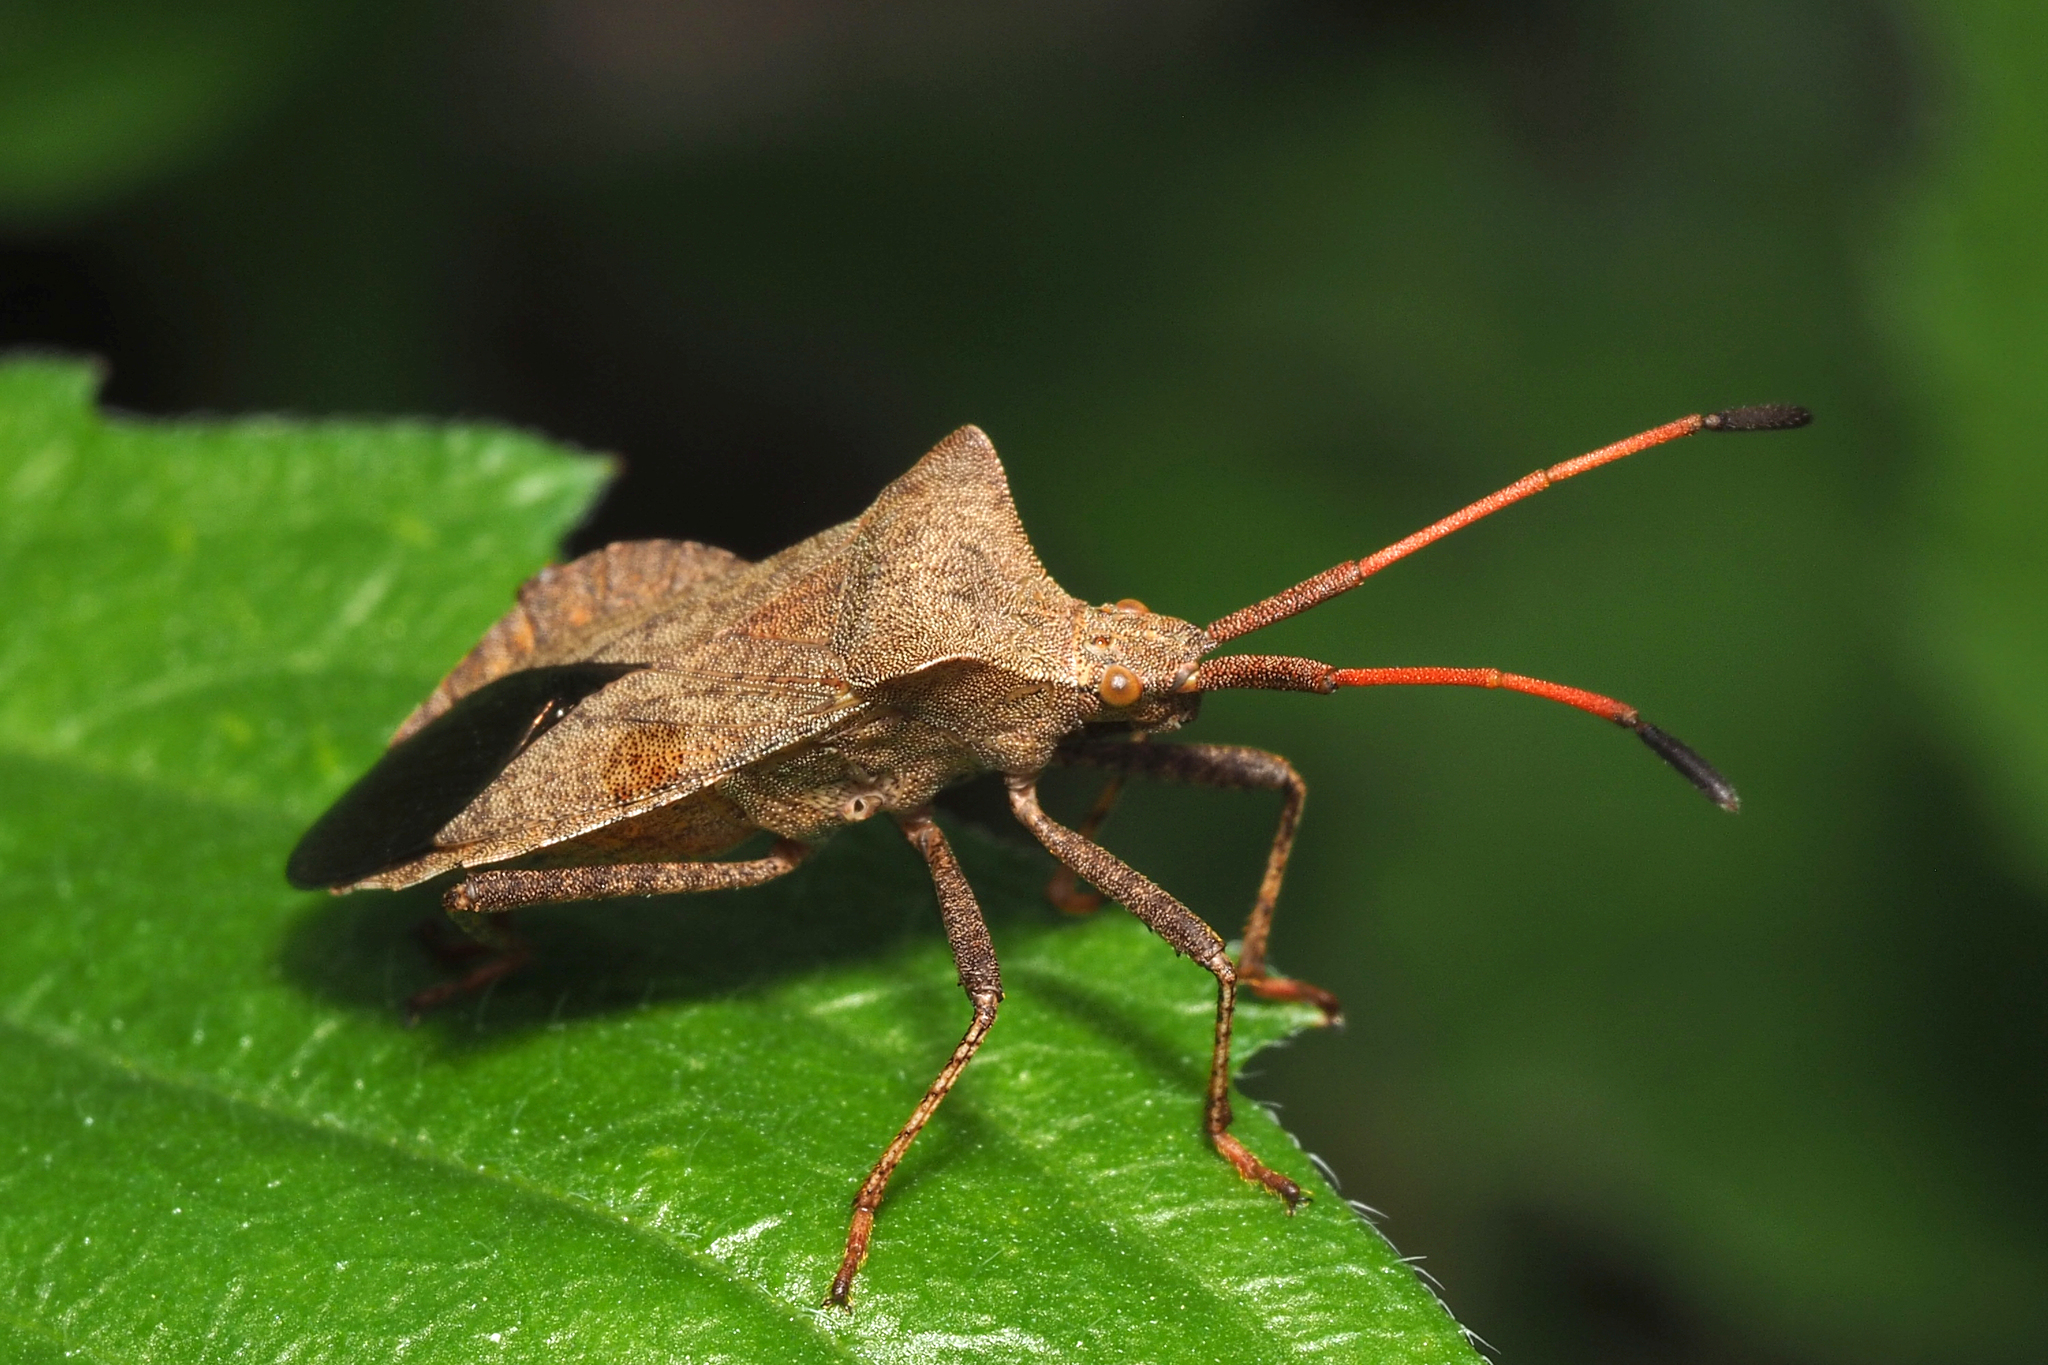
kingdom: Animalia
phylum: Arthropoda
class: Insecta
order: Hemiptera
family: Coreidae
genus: Coreus
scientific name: Coreus marginatus
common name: Dock bug
